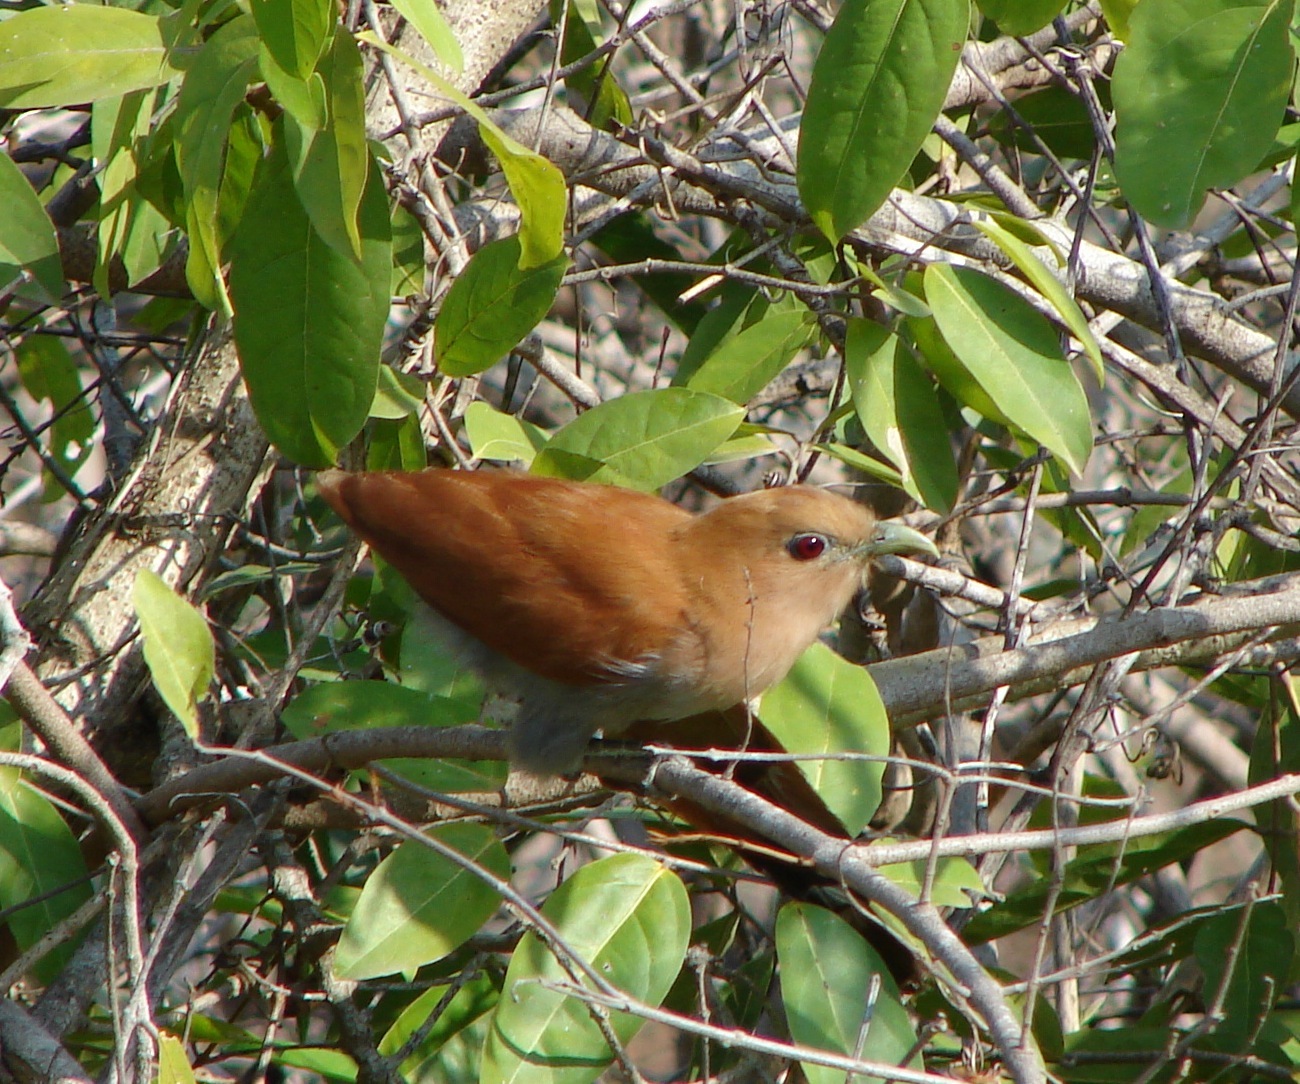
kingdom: Animalia
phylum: Chordata
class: Aves
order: Cuculiformes
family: Cuculidae
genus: Piaya
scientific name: Piaya cayana
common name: Squirrel cuckoo
